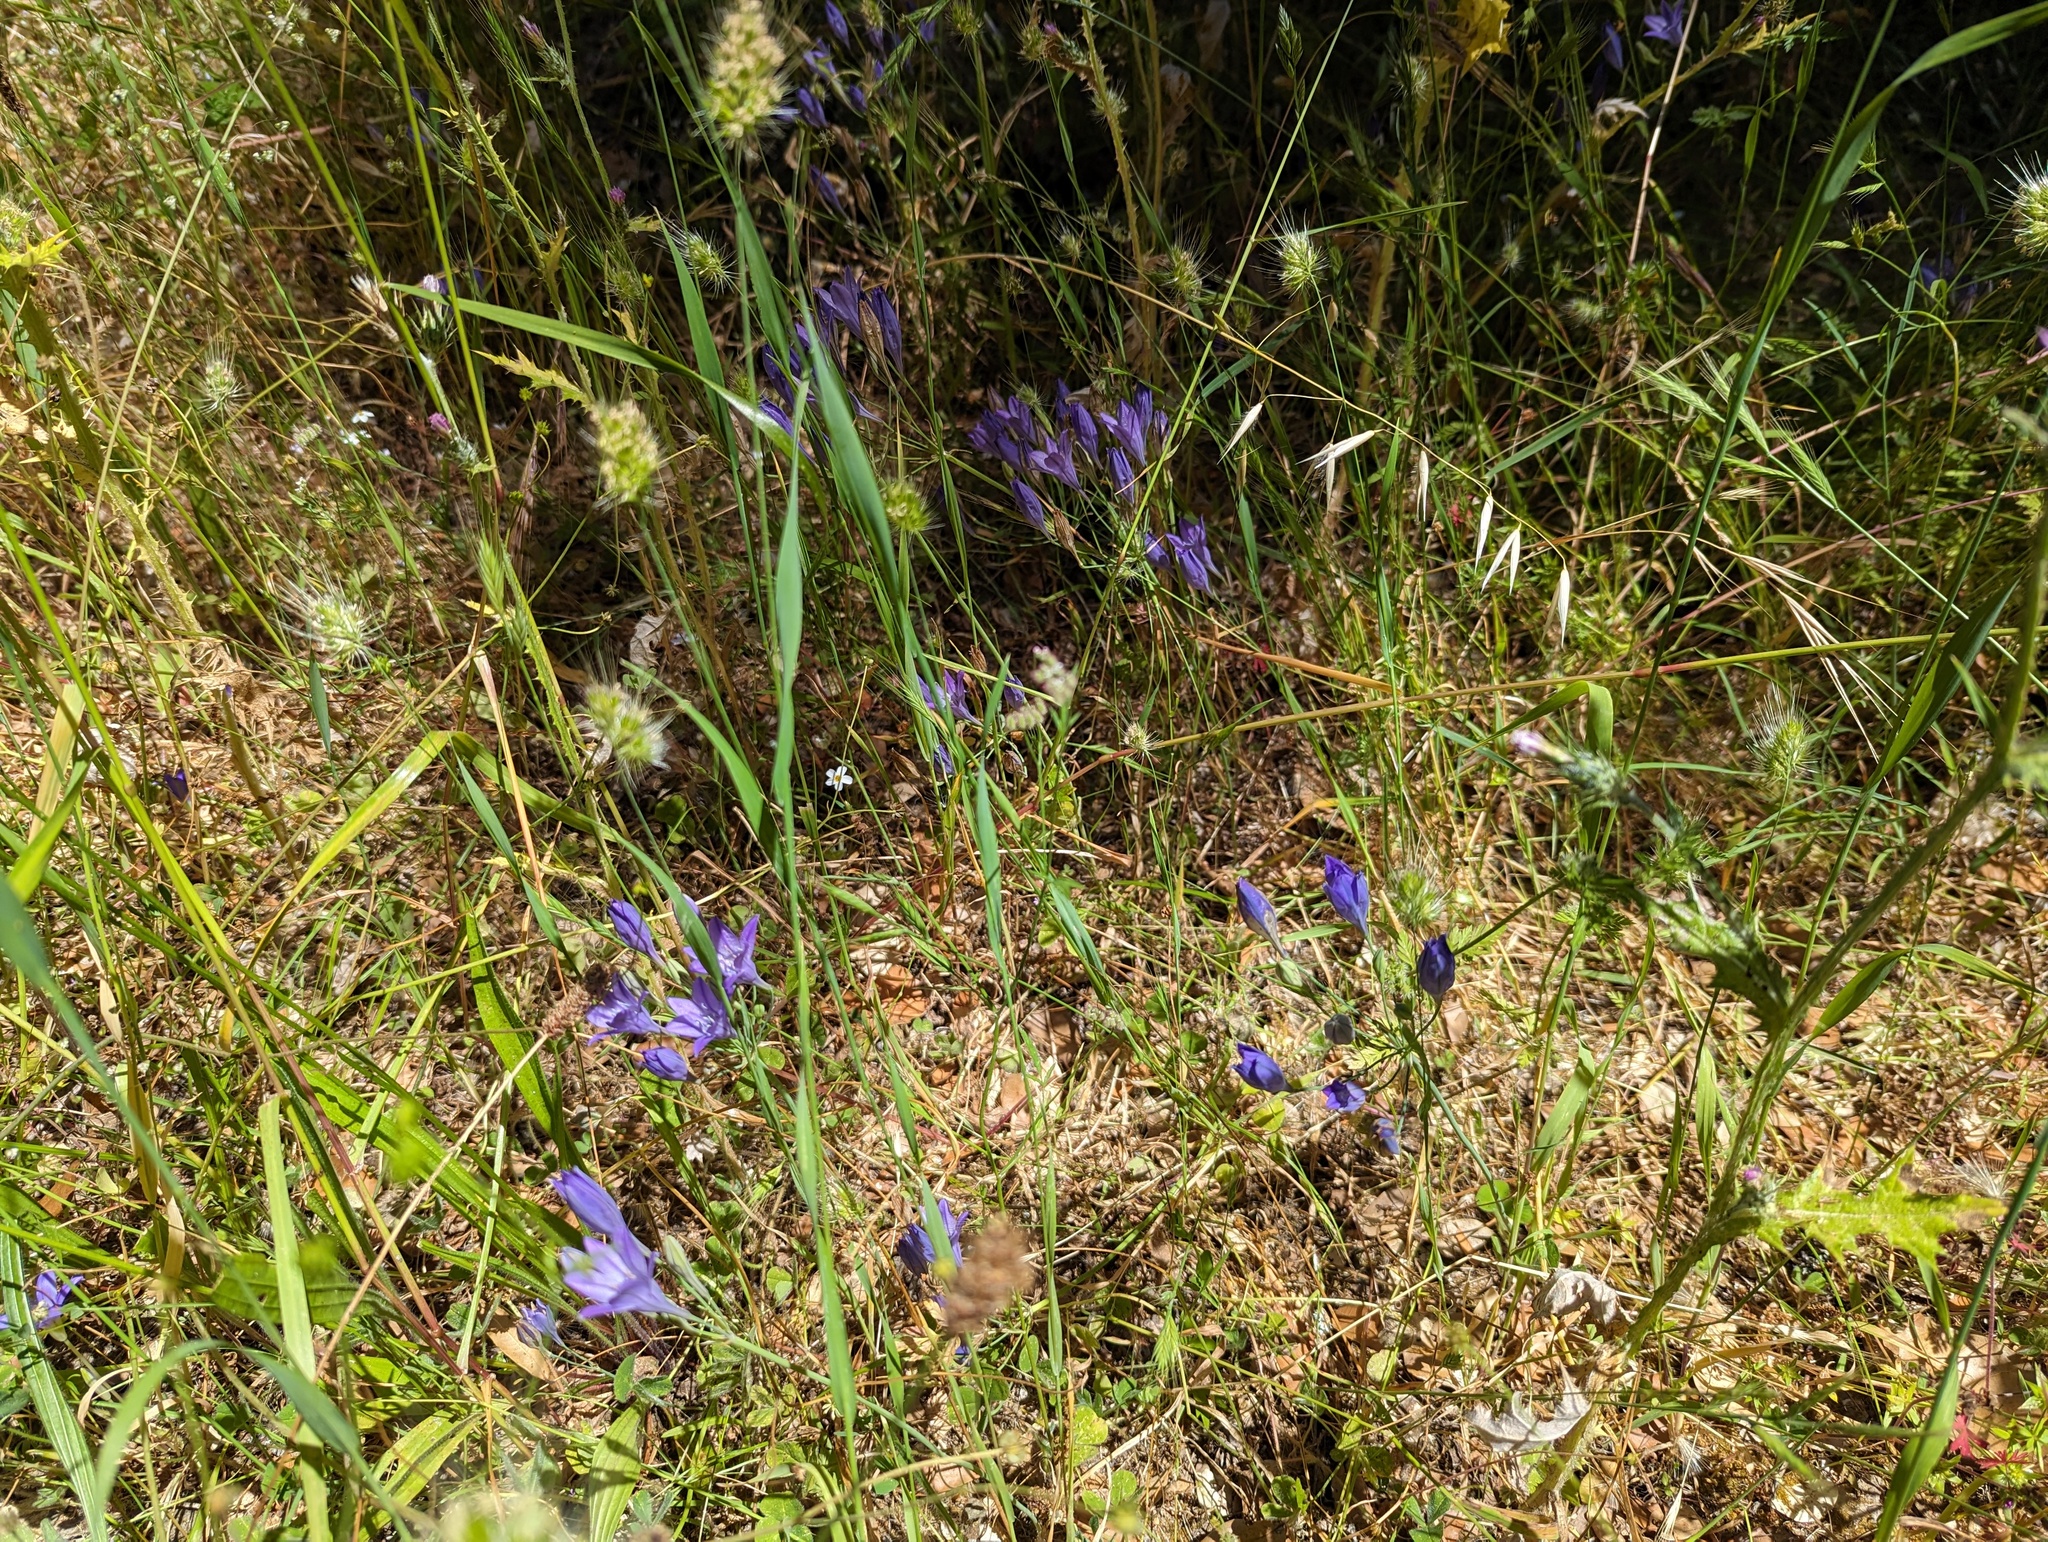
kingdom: Plantae
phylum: Tracheophyta
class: Liliopsida
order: Asparagales
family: Asparagaceae
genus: Triteleia
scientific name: Triteleia laxa
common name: Triplet-lily
